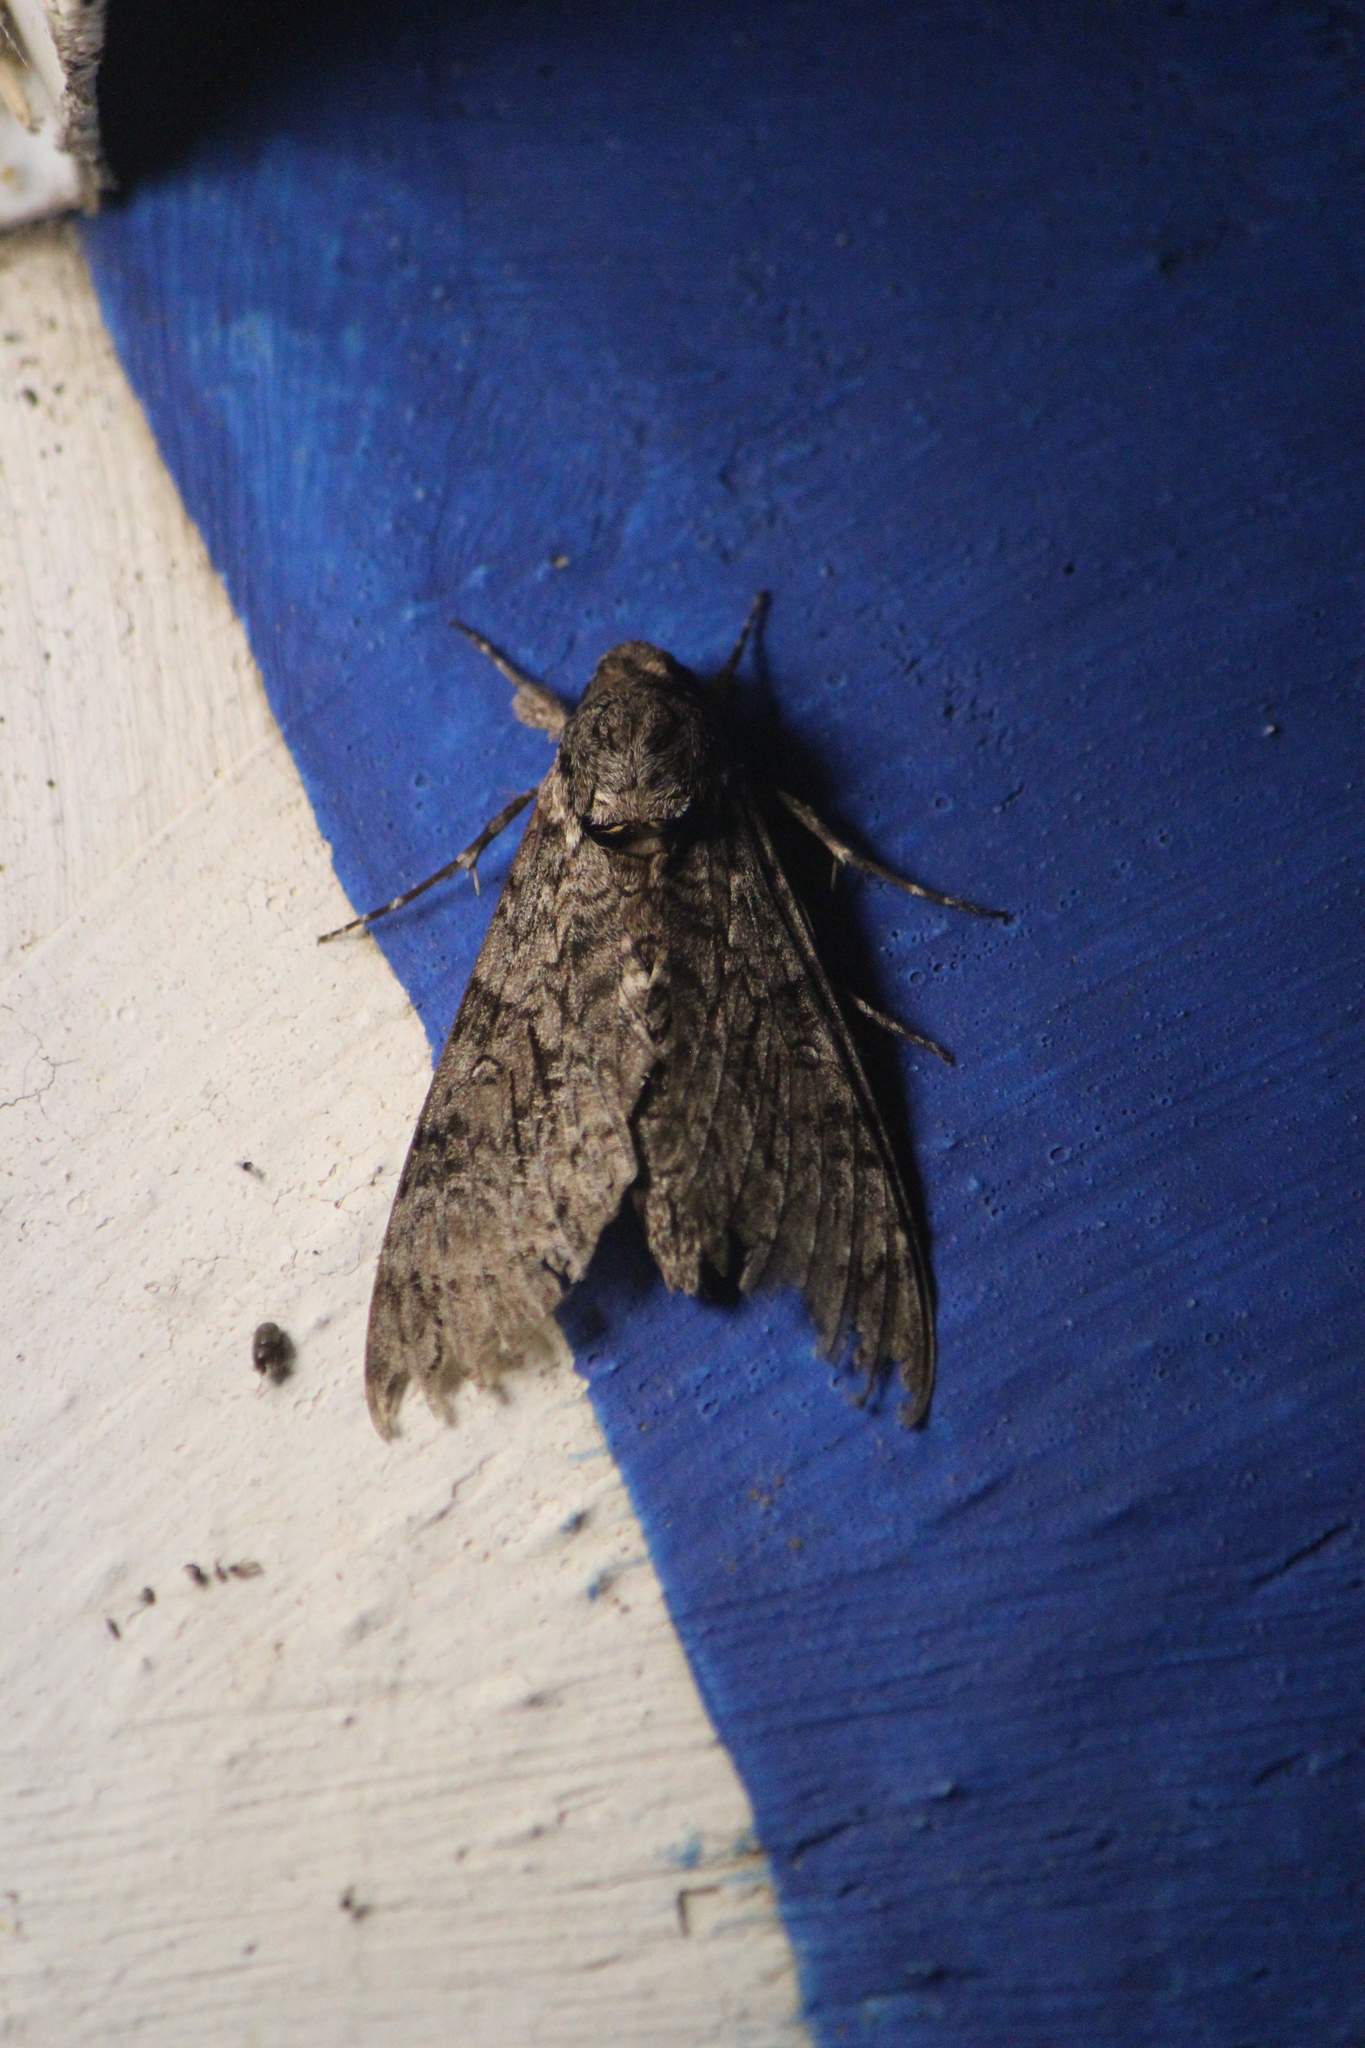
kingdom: Animalia
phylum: Arthropoda
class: Insecta
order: Lepidoptera
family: Sphingidae
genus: Agrius
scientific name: Agrius cingulata
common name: Pink-spotted hawkmoth
